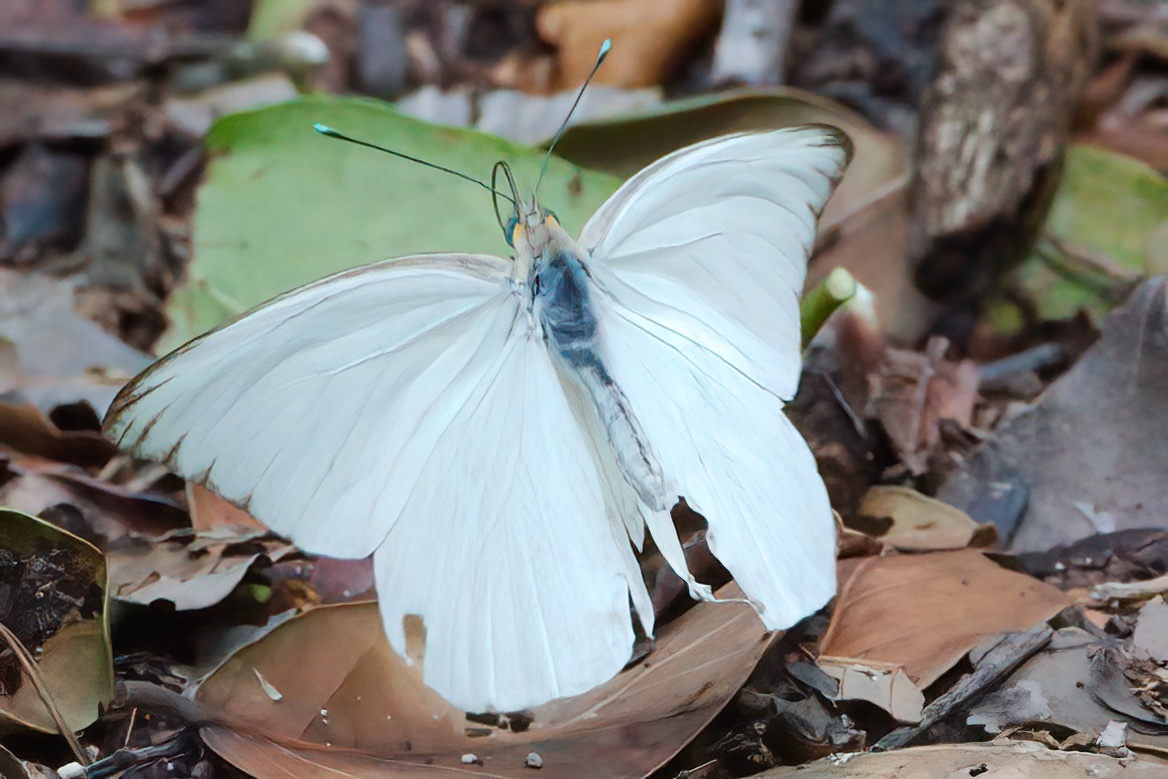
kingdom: Animalia
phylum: Arthropoda
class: Insecta
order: Lepidoptera
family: Pieridae
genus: Ascia
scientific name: Ascia monuste
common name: Great southern white
